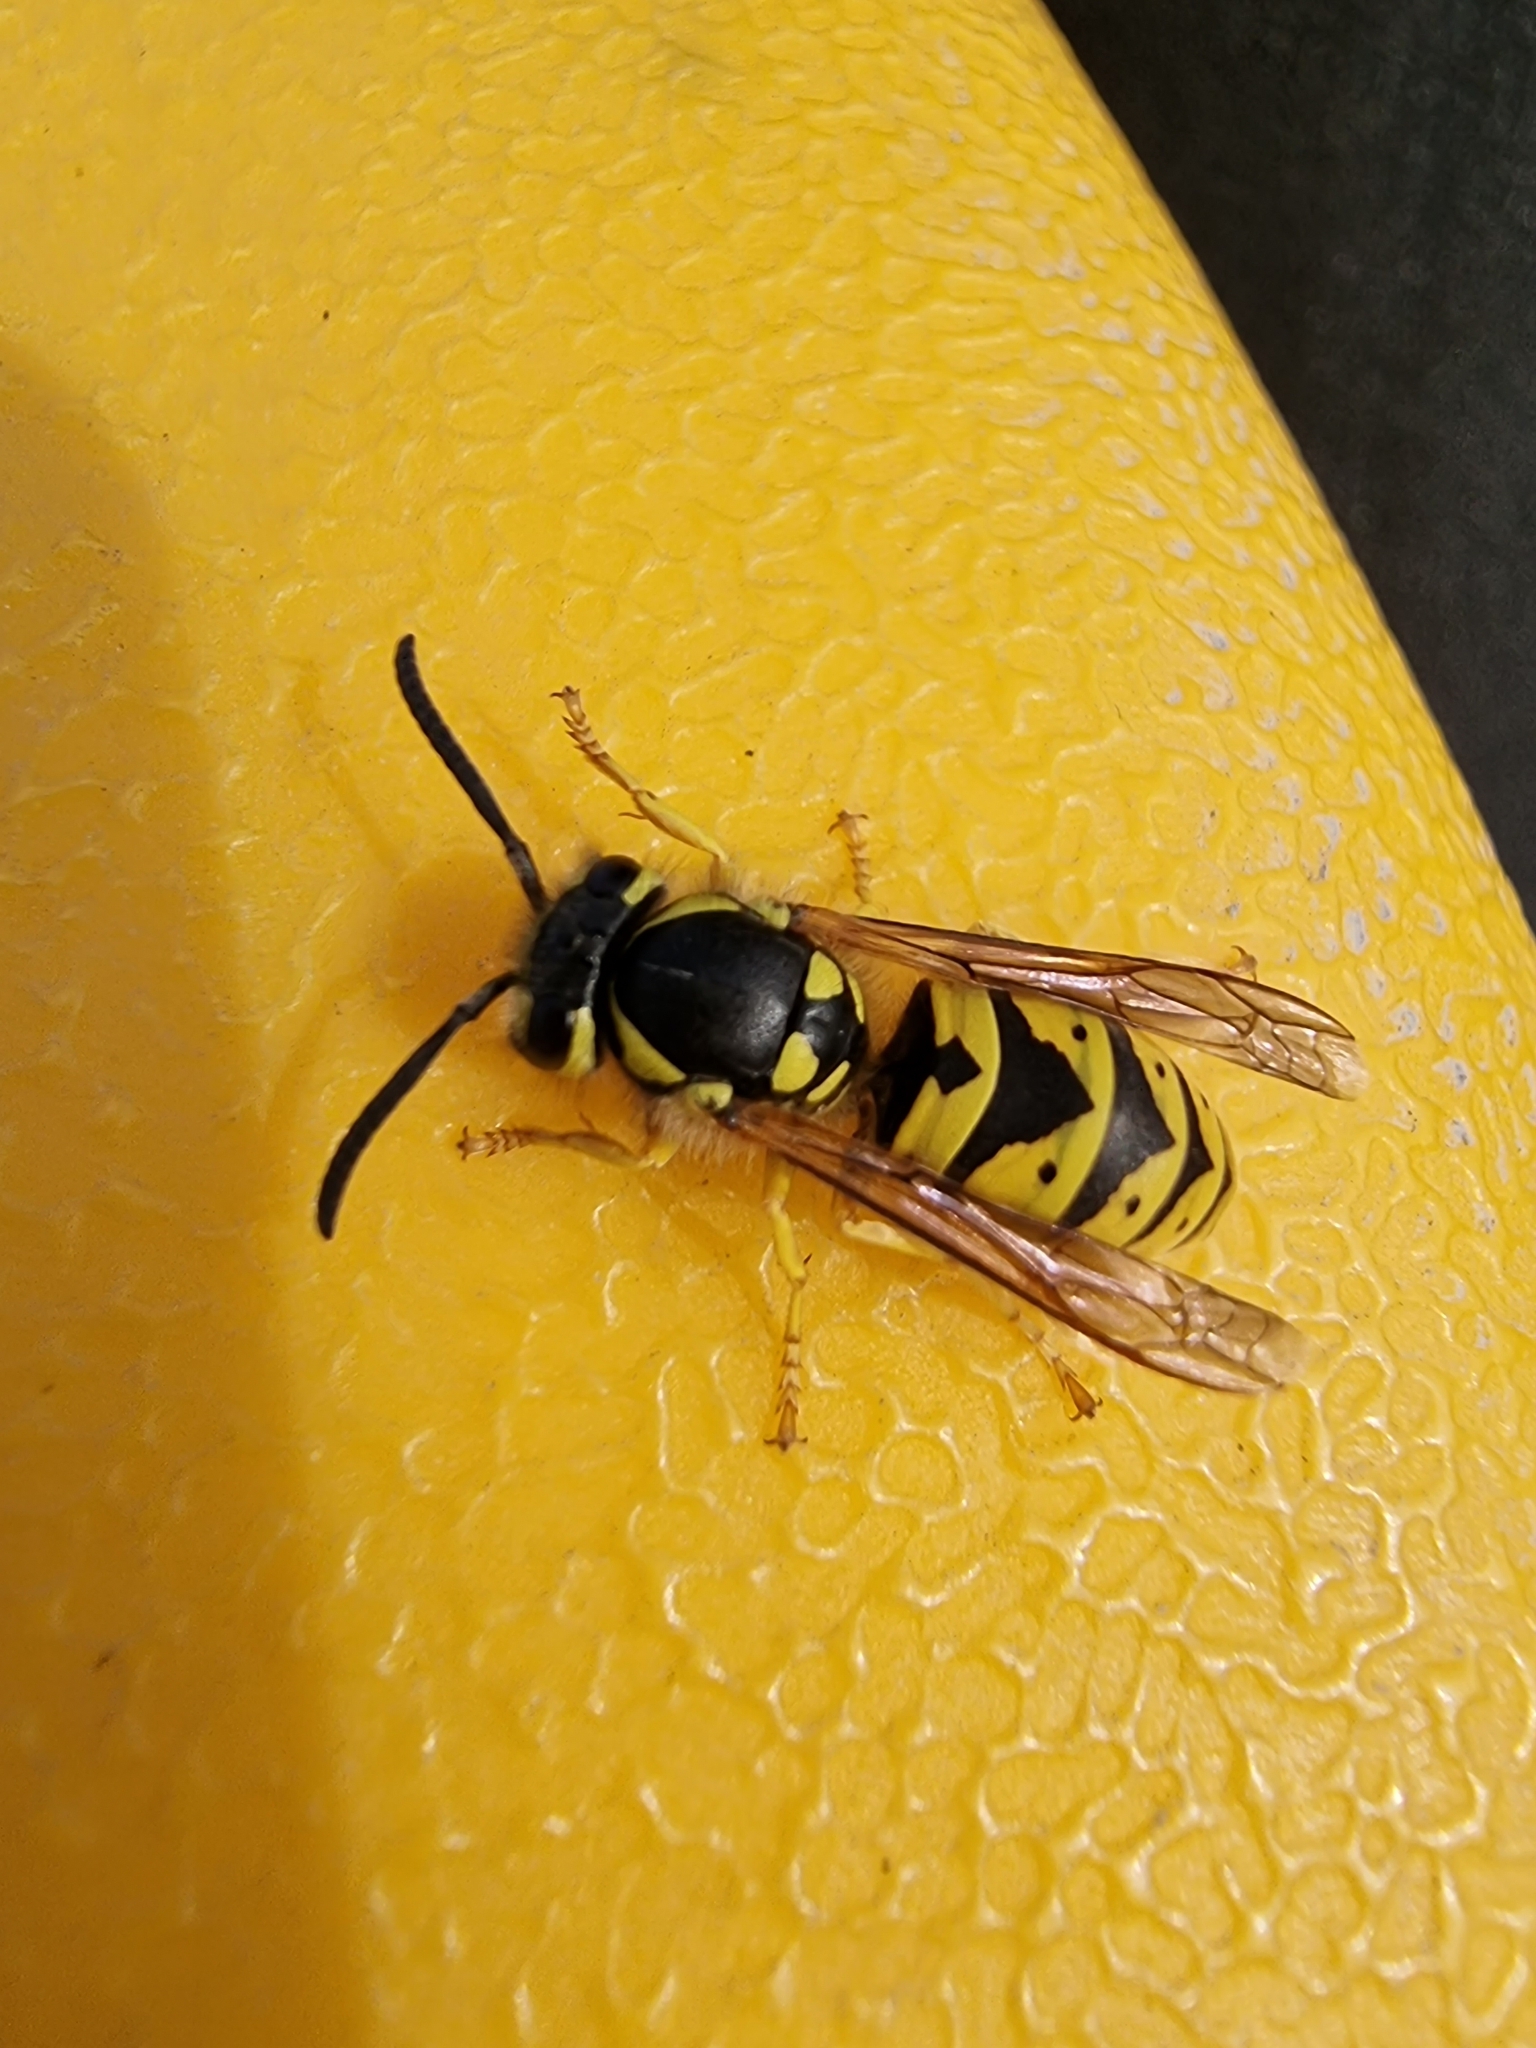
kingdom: Animalia
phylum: Arthropoda
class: Insecta
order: Hymenoptera
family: Vespidae
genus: Vespula
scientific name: Vespula germanica
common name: German wasp
